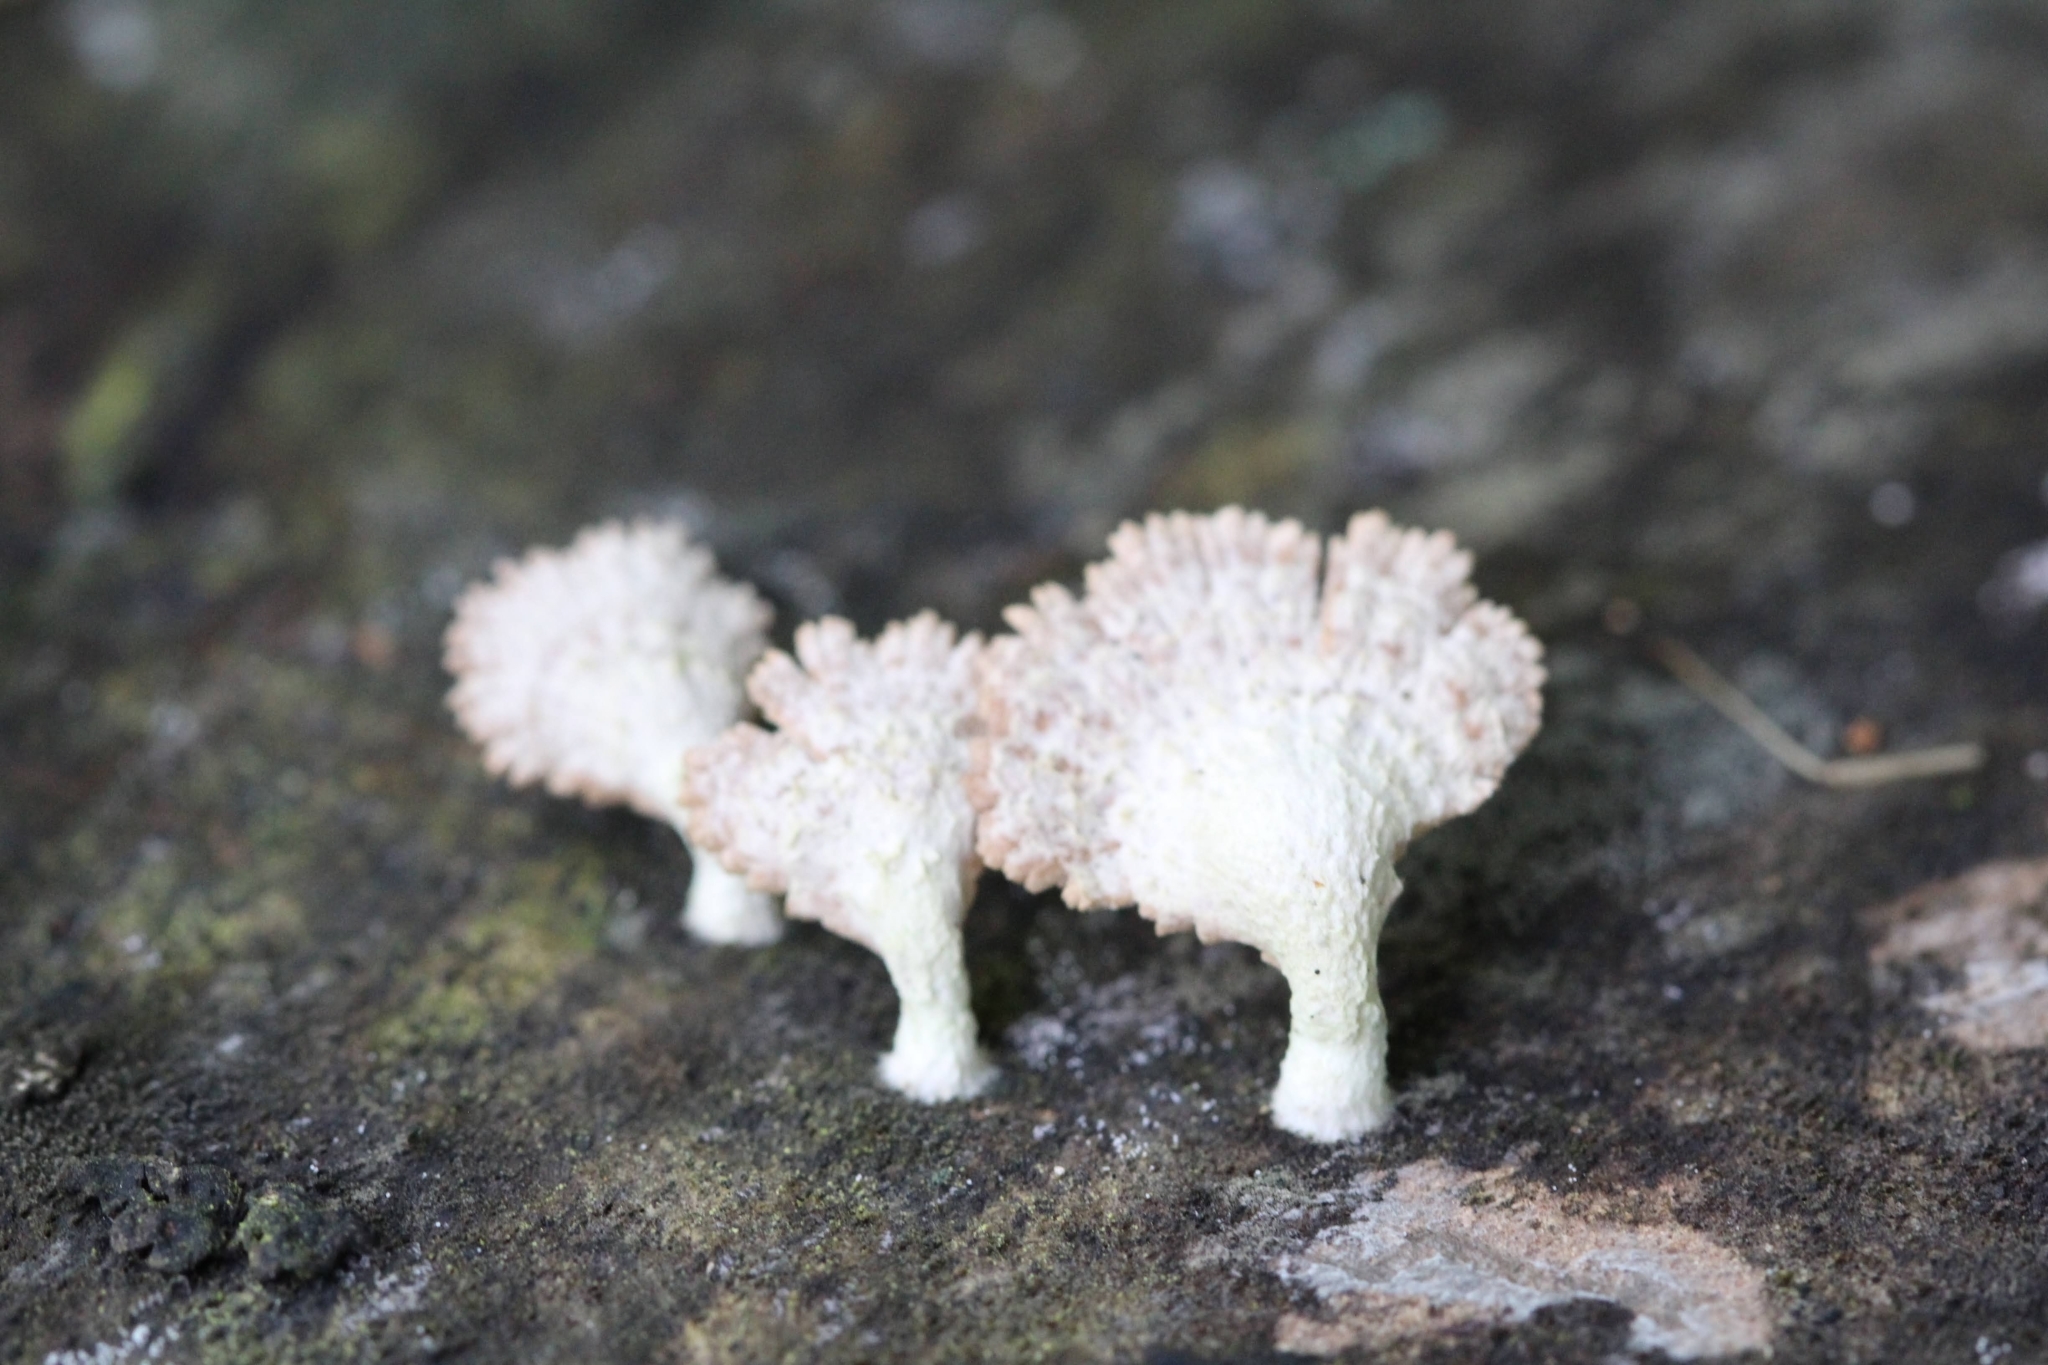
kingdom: Fungi
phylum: Basidiomycota
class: Agaricomycetes
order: Agaricales
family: Schizophyllaceae
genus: Schizophyllum
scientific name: Schizophyllum commune
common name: Common porecrust
